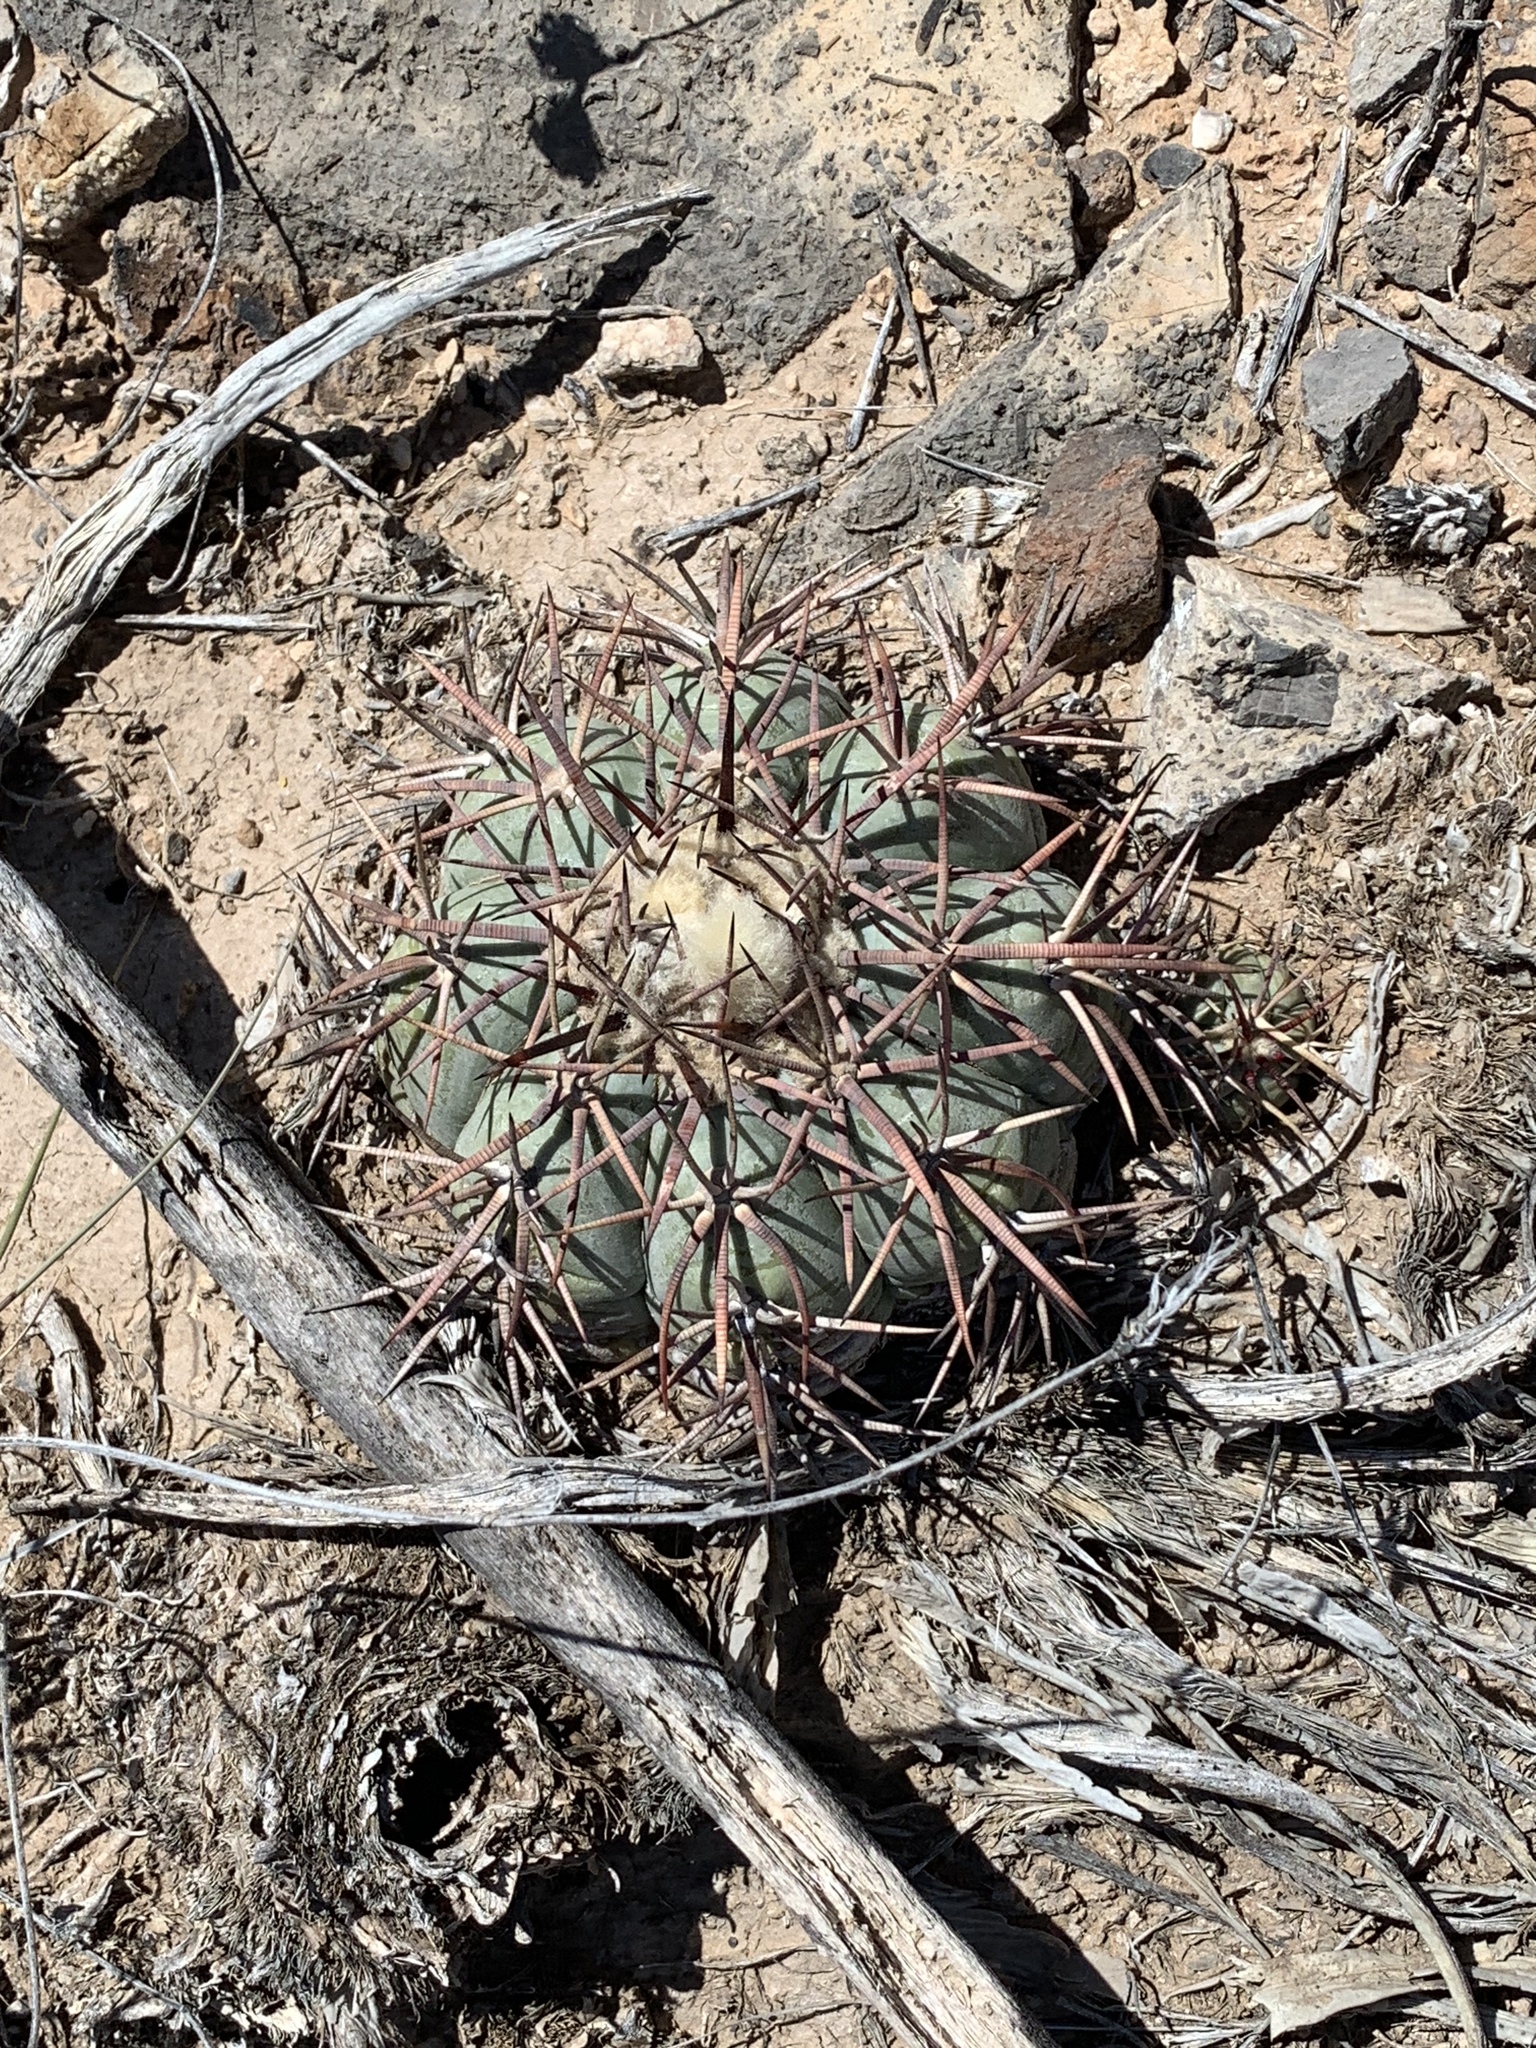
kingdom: Plantae
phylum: Tracheophyta
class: Magnoliopsida
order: Caryophyllales
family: Cactaceae
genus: Echinocactus
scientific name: Echinocactus horizonthalonius
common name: Devilshead
